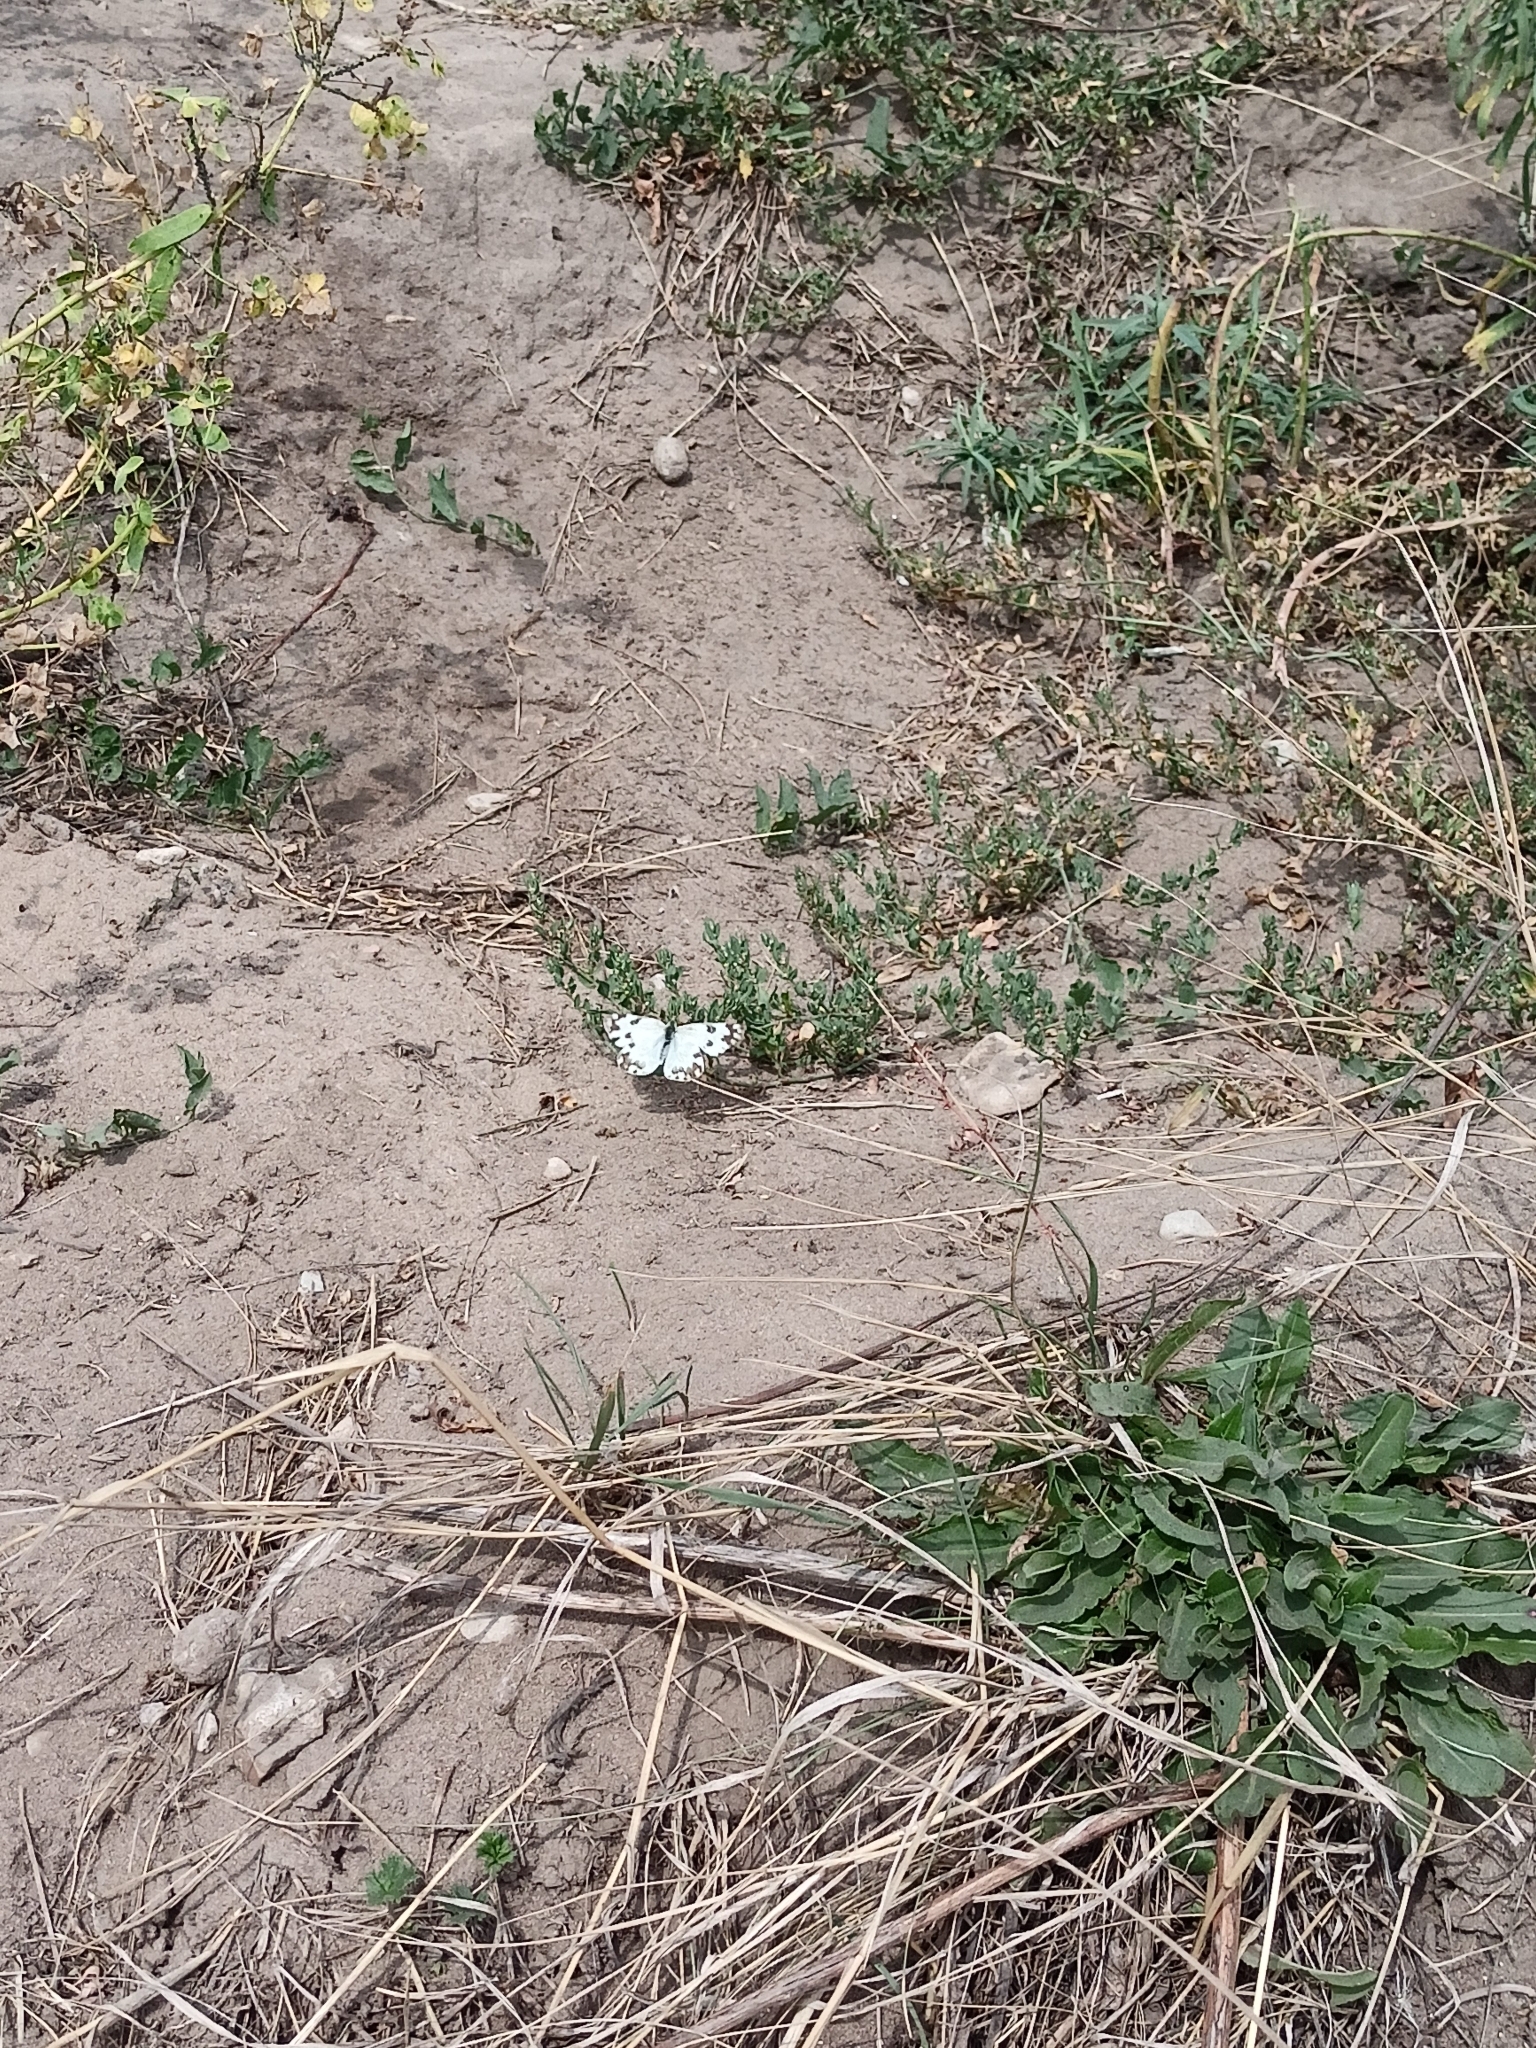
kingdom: Animalia
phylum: Arthropoda
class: Insecta
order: Lepidoptera
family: Pieridae
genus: Pontia
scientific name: Pontia edusa
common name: Eastern bath white
